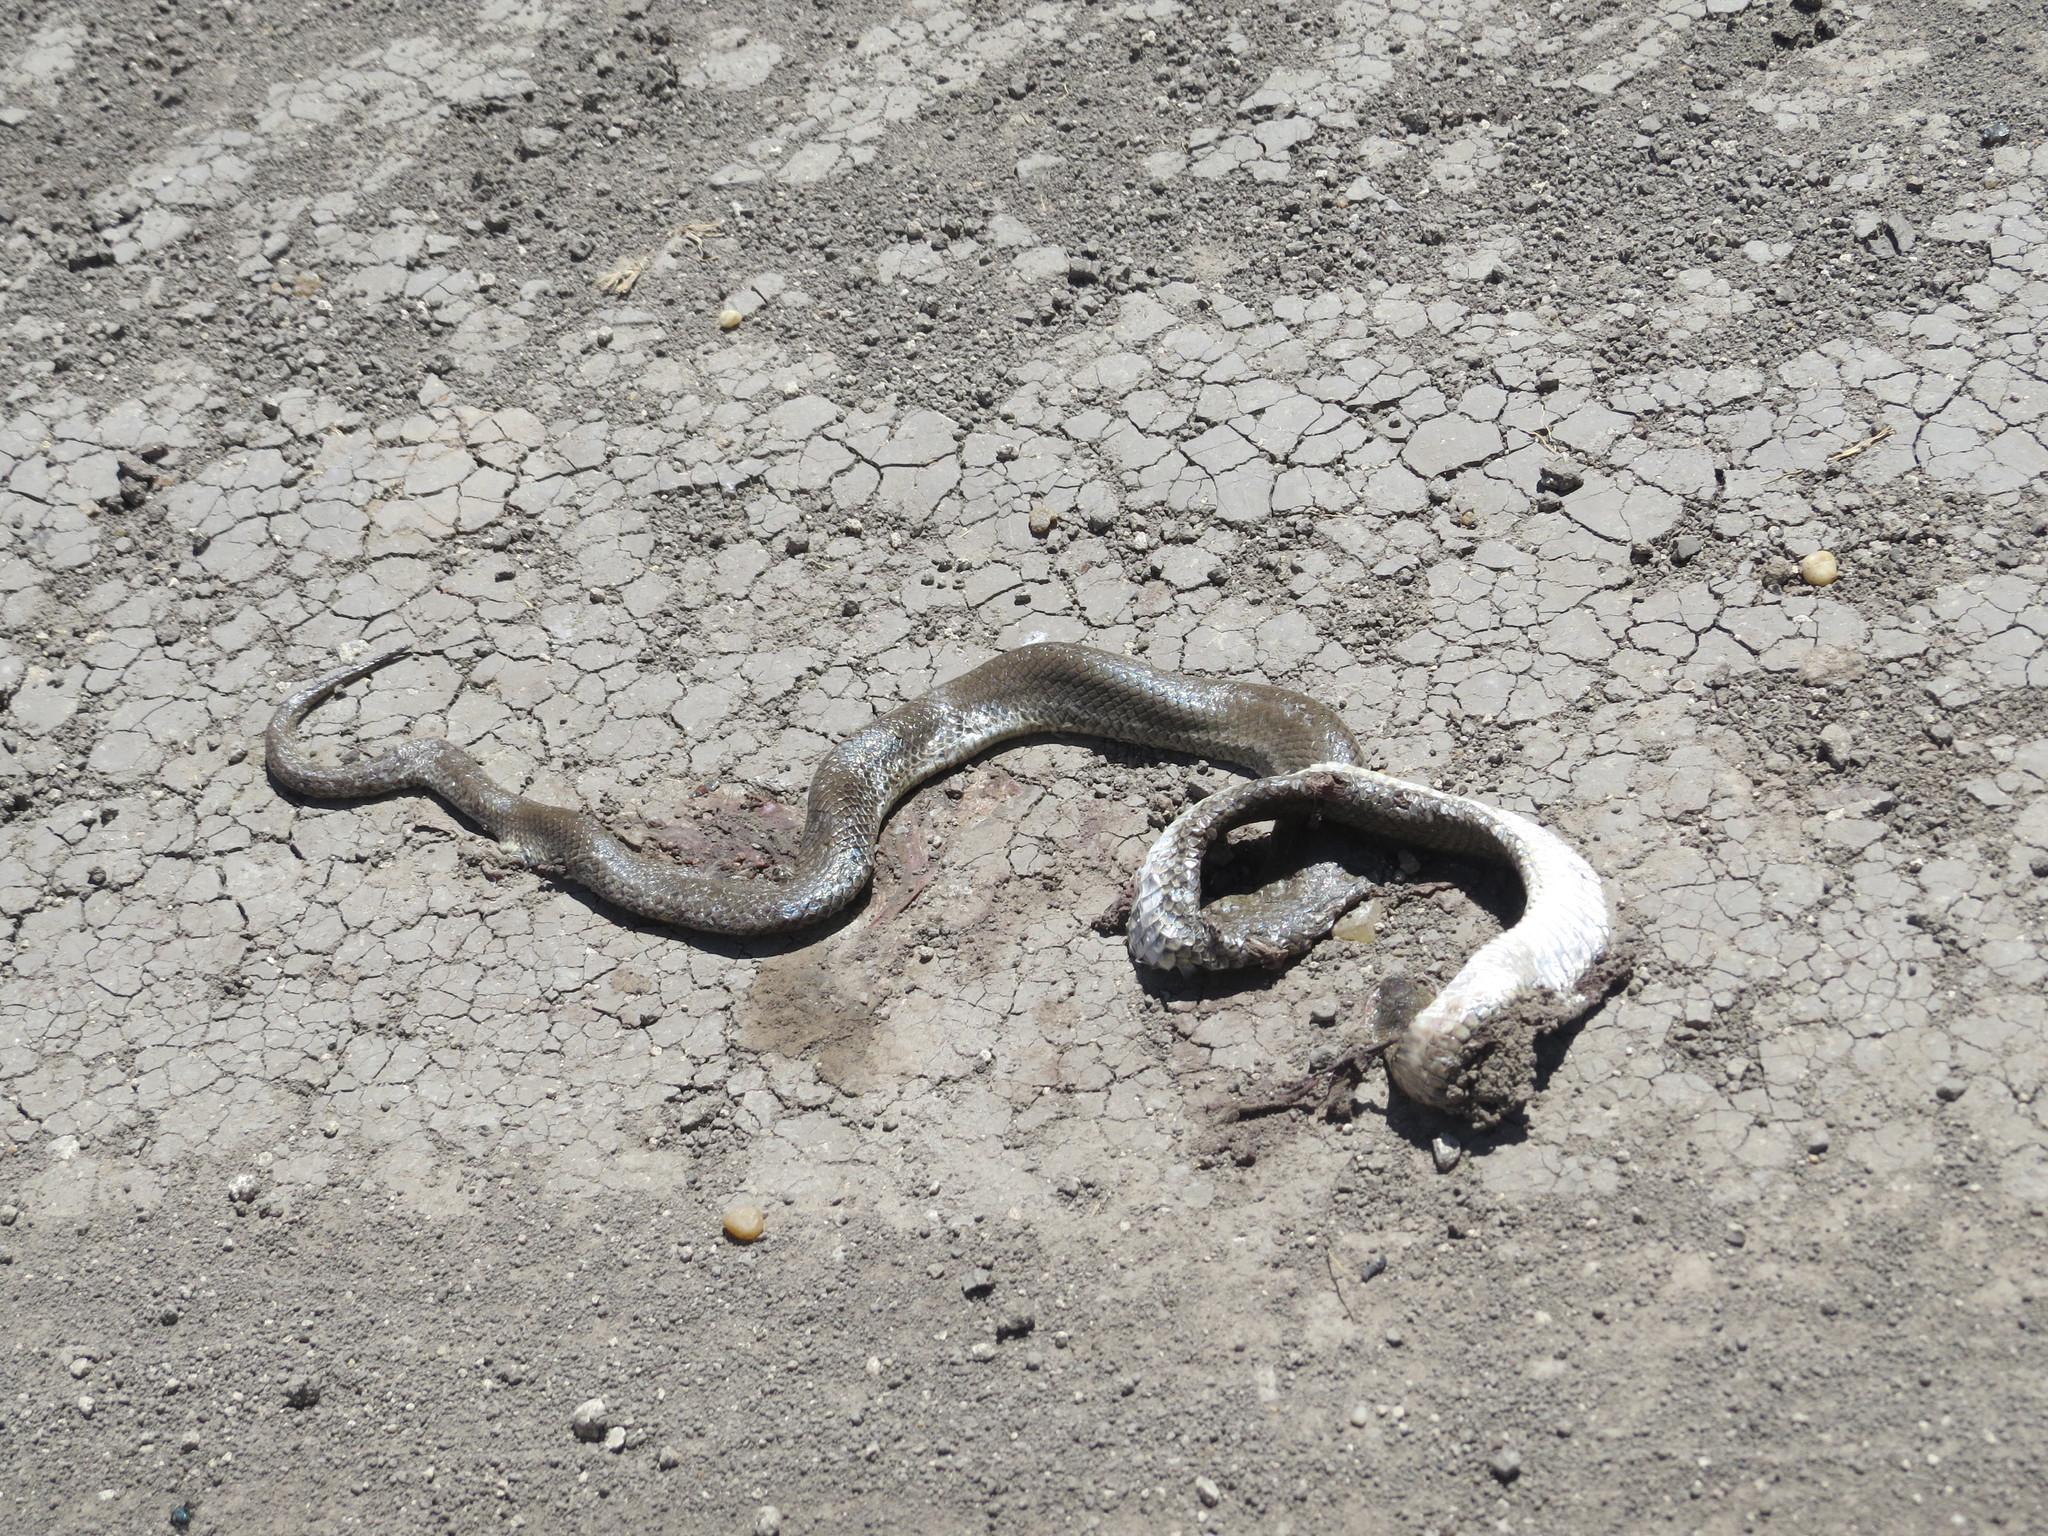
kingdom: Animalia
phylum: Chordata
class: Squamata
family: Colubridae
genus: Paraphimophis
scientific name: Paraphimophis rusticus
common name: Culebra
